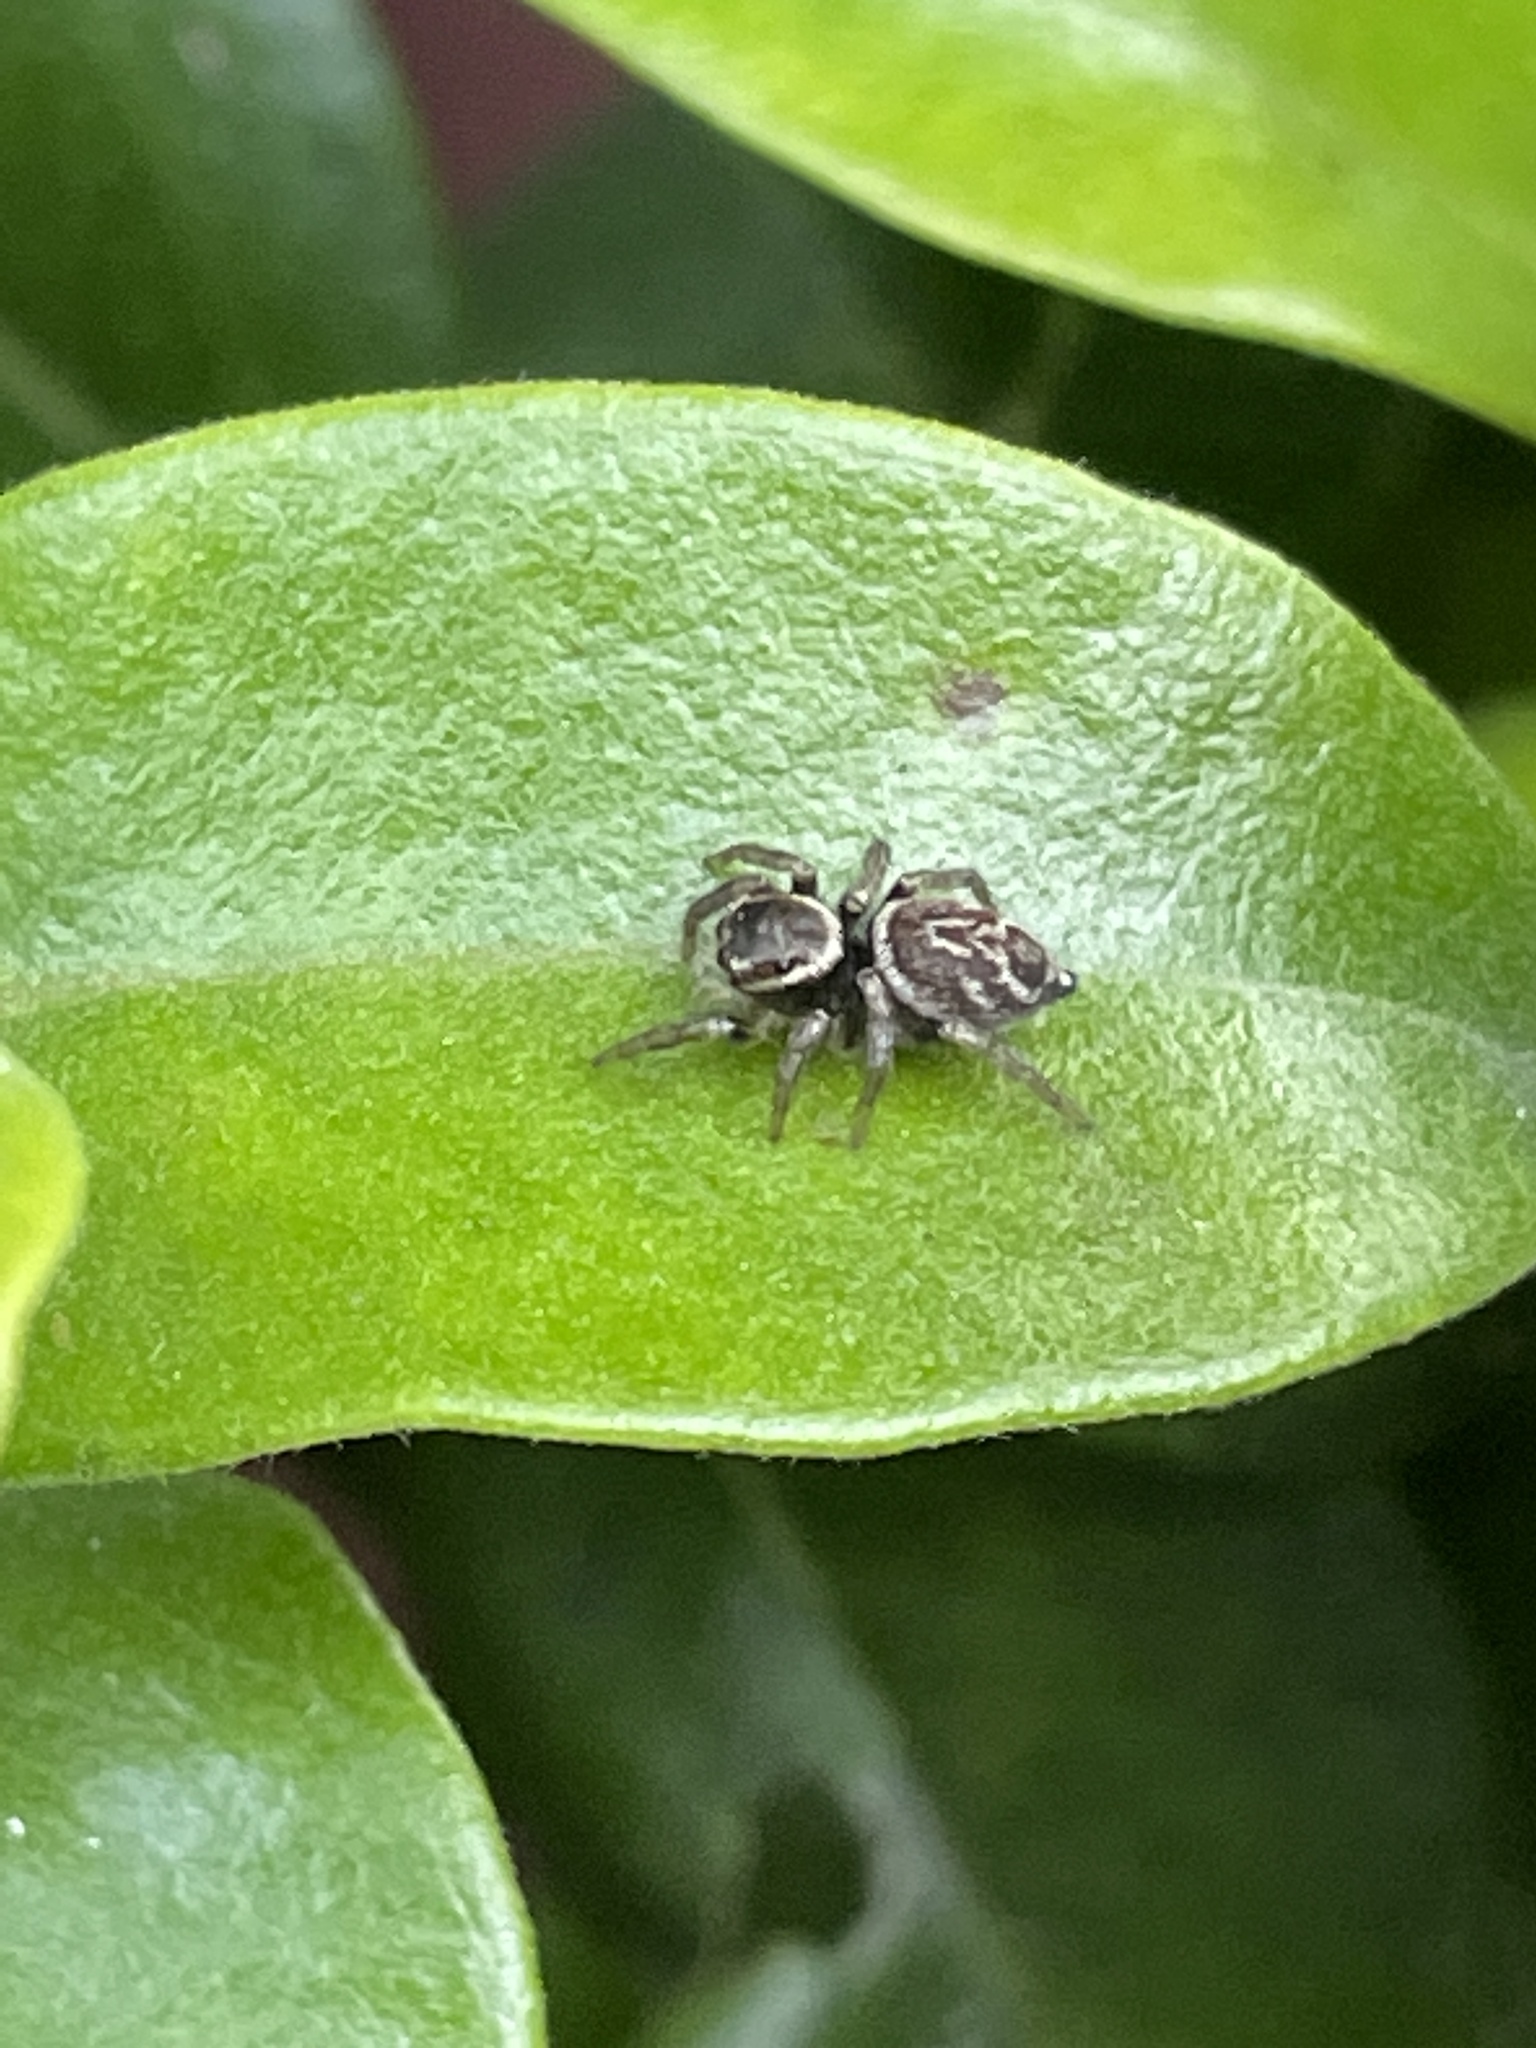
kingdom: Animalia
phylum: Arthropoda
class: Arachnida
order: Araneae
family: Salticidae
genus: Maratus
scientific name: Maratus griseus
